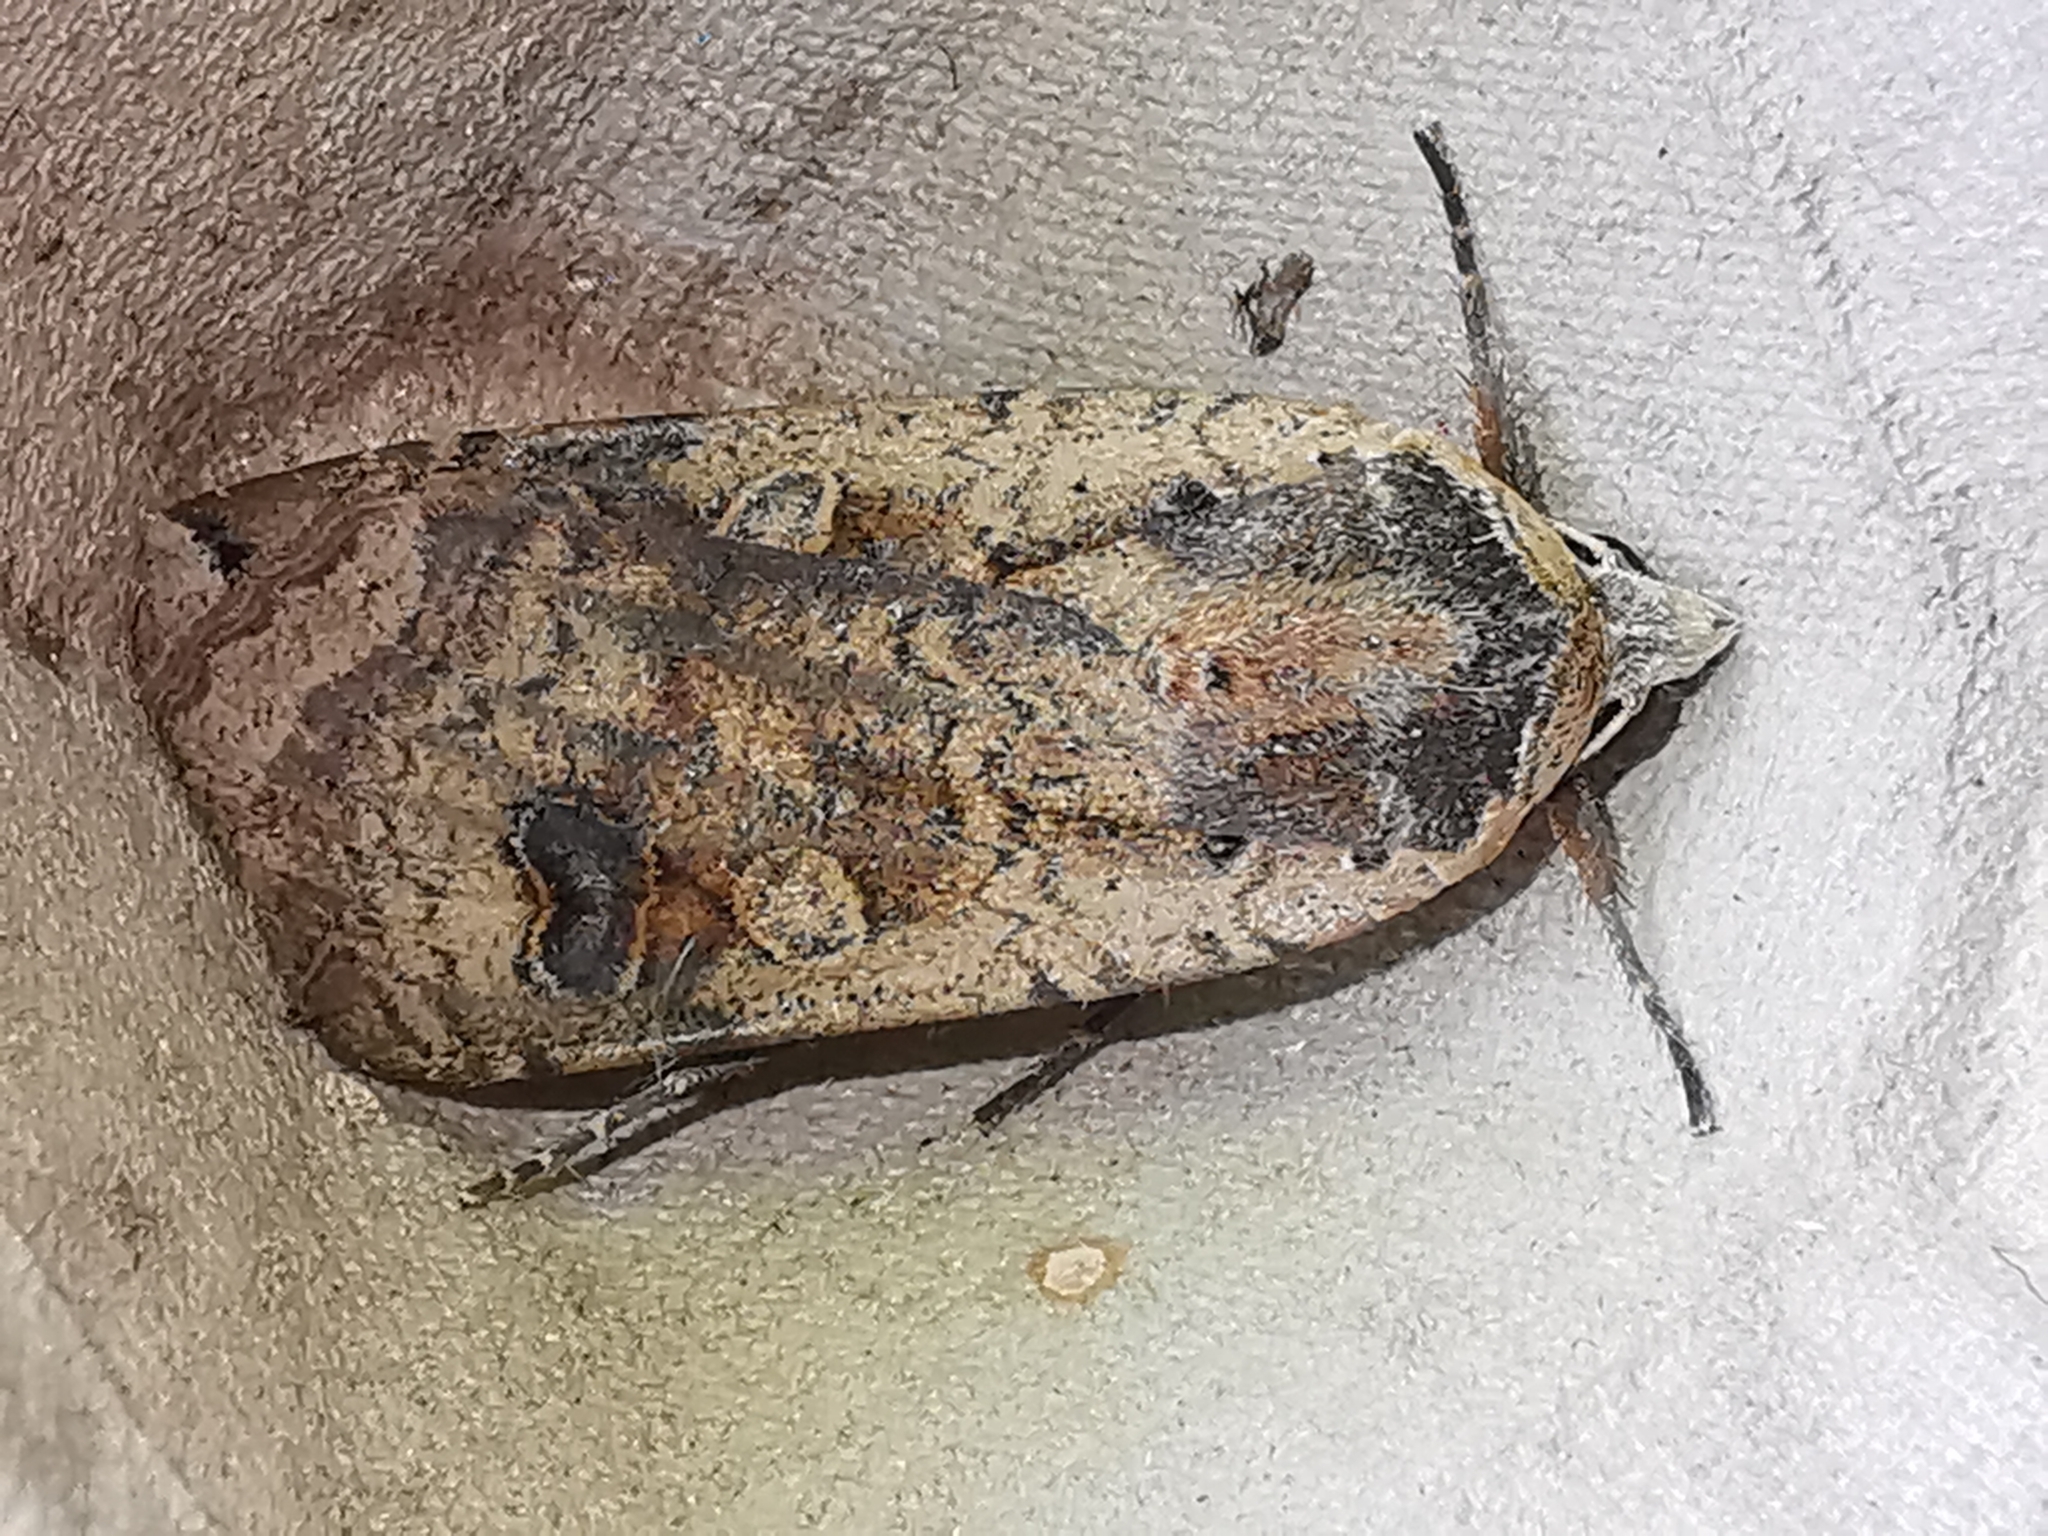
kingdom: Animalia
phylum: Arthropoda
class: Insecta
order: Lepidoptera
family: Noctuidae
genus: Noctua
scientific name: Noctua pronuba
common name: Large yellow underwing
